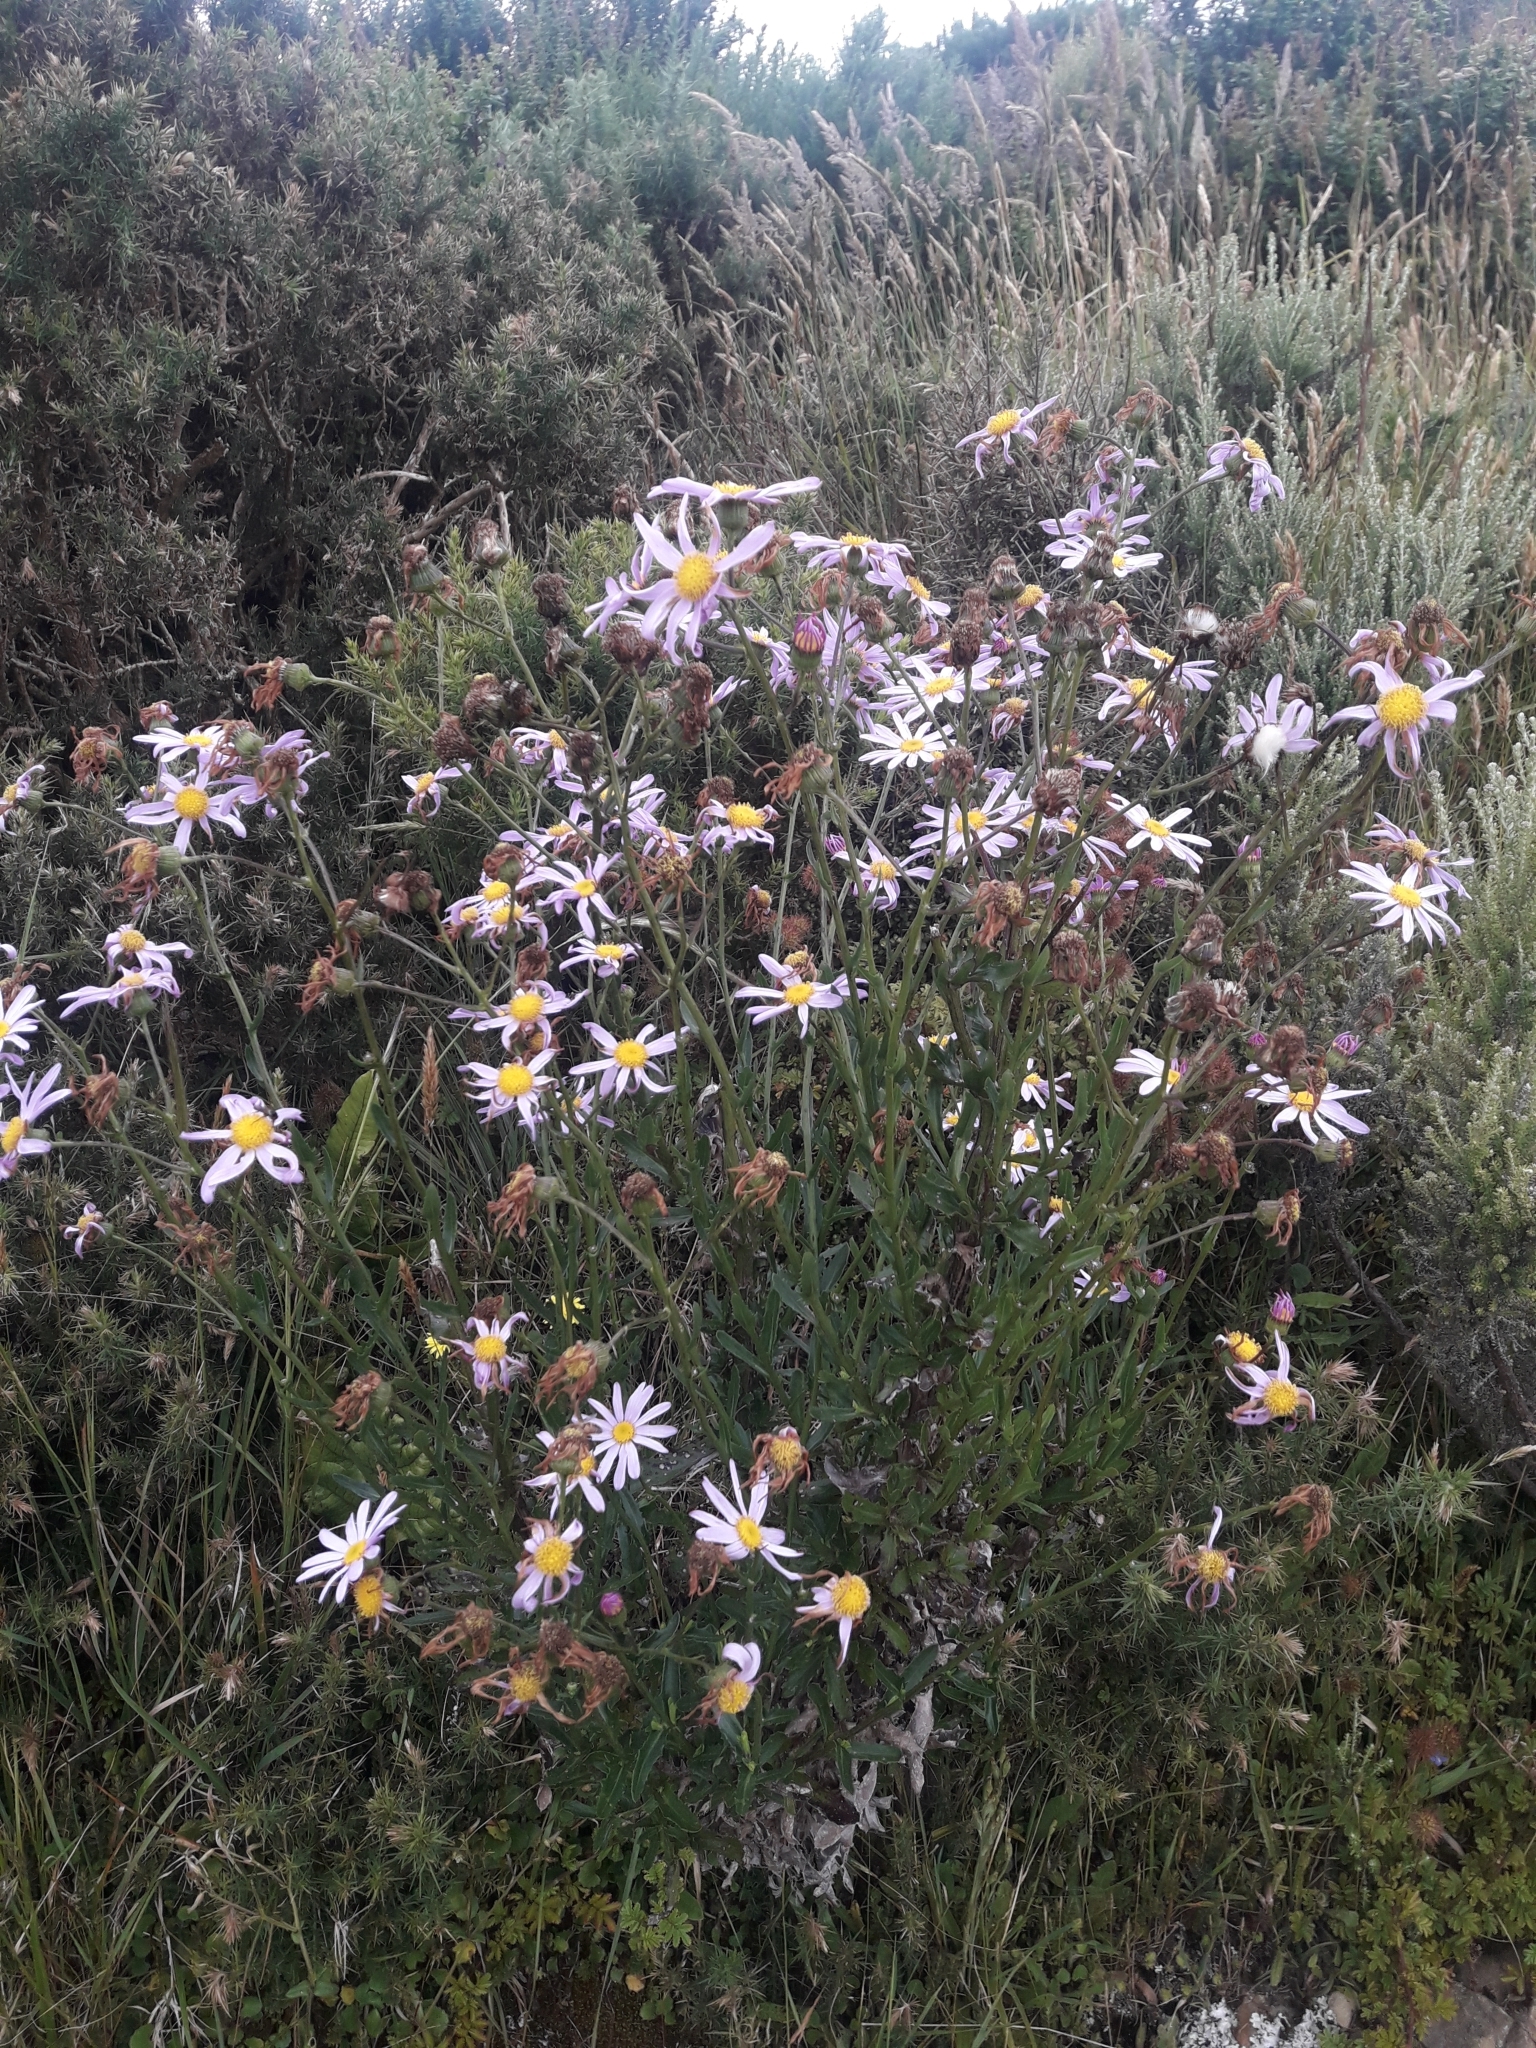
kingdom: Plantae
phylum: Tracheophyta
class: Magnoliopsida
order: Asterales
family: Asteraceae
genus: Senecio
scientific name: Senecio glastifolius
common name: Woad-leaved ragwort
